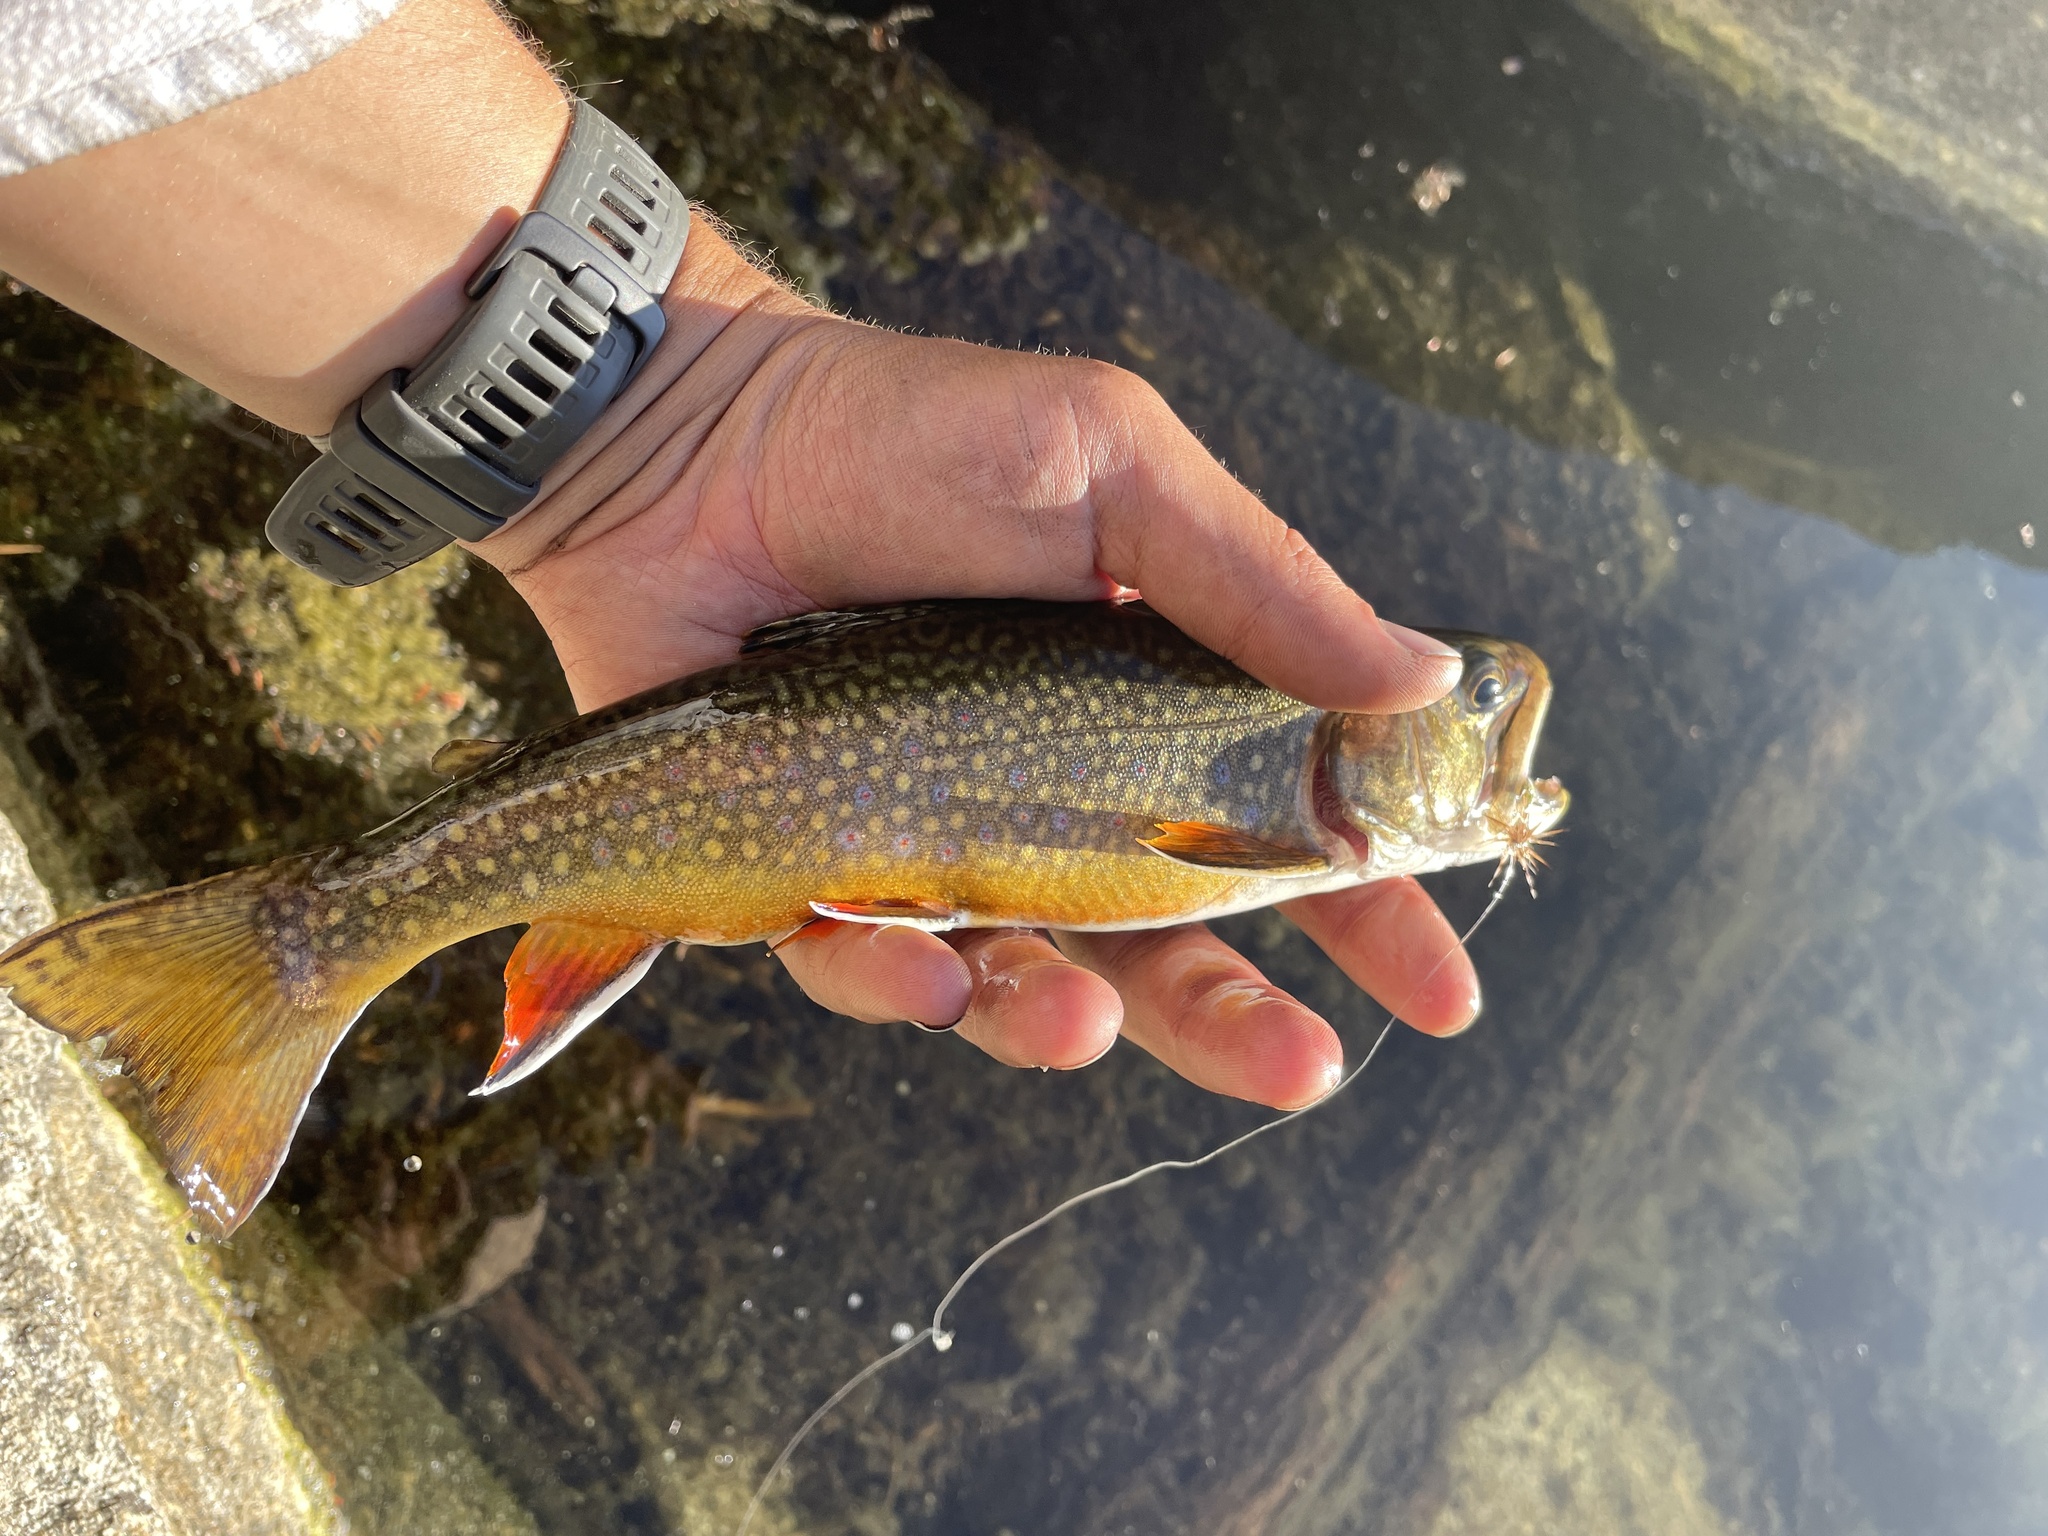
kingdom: Animalia
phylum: Chordata
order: Salmoniformes
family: Salmonidae
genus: Salvelinus
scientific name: Salvelinus fontinalis
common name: Brook trout
